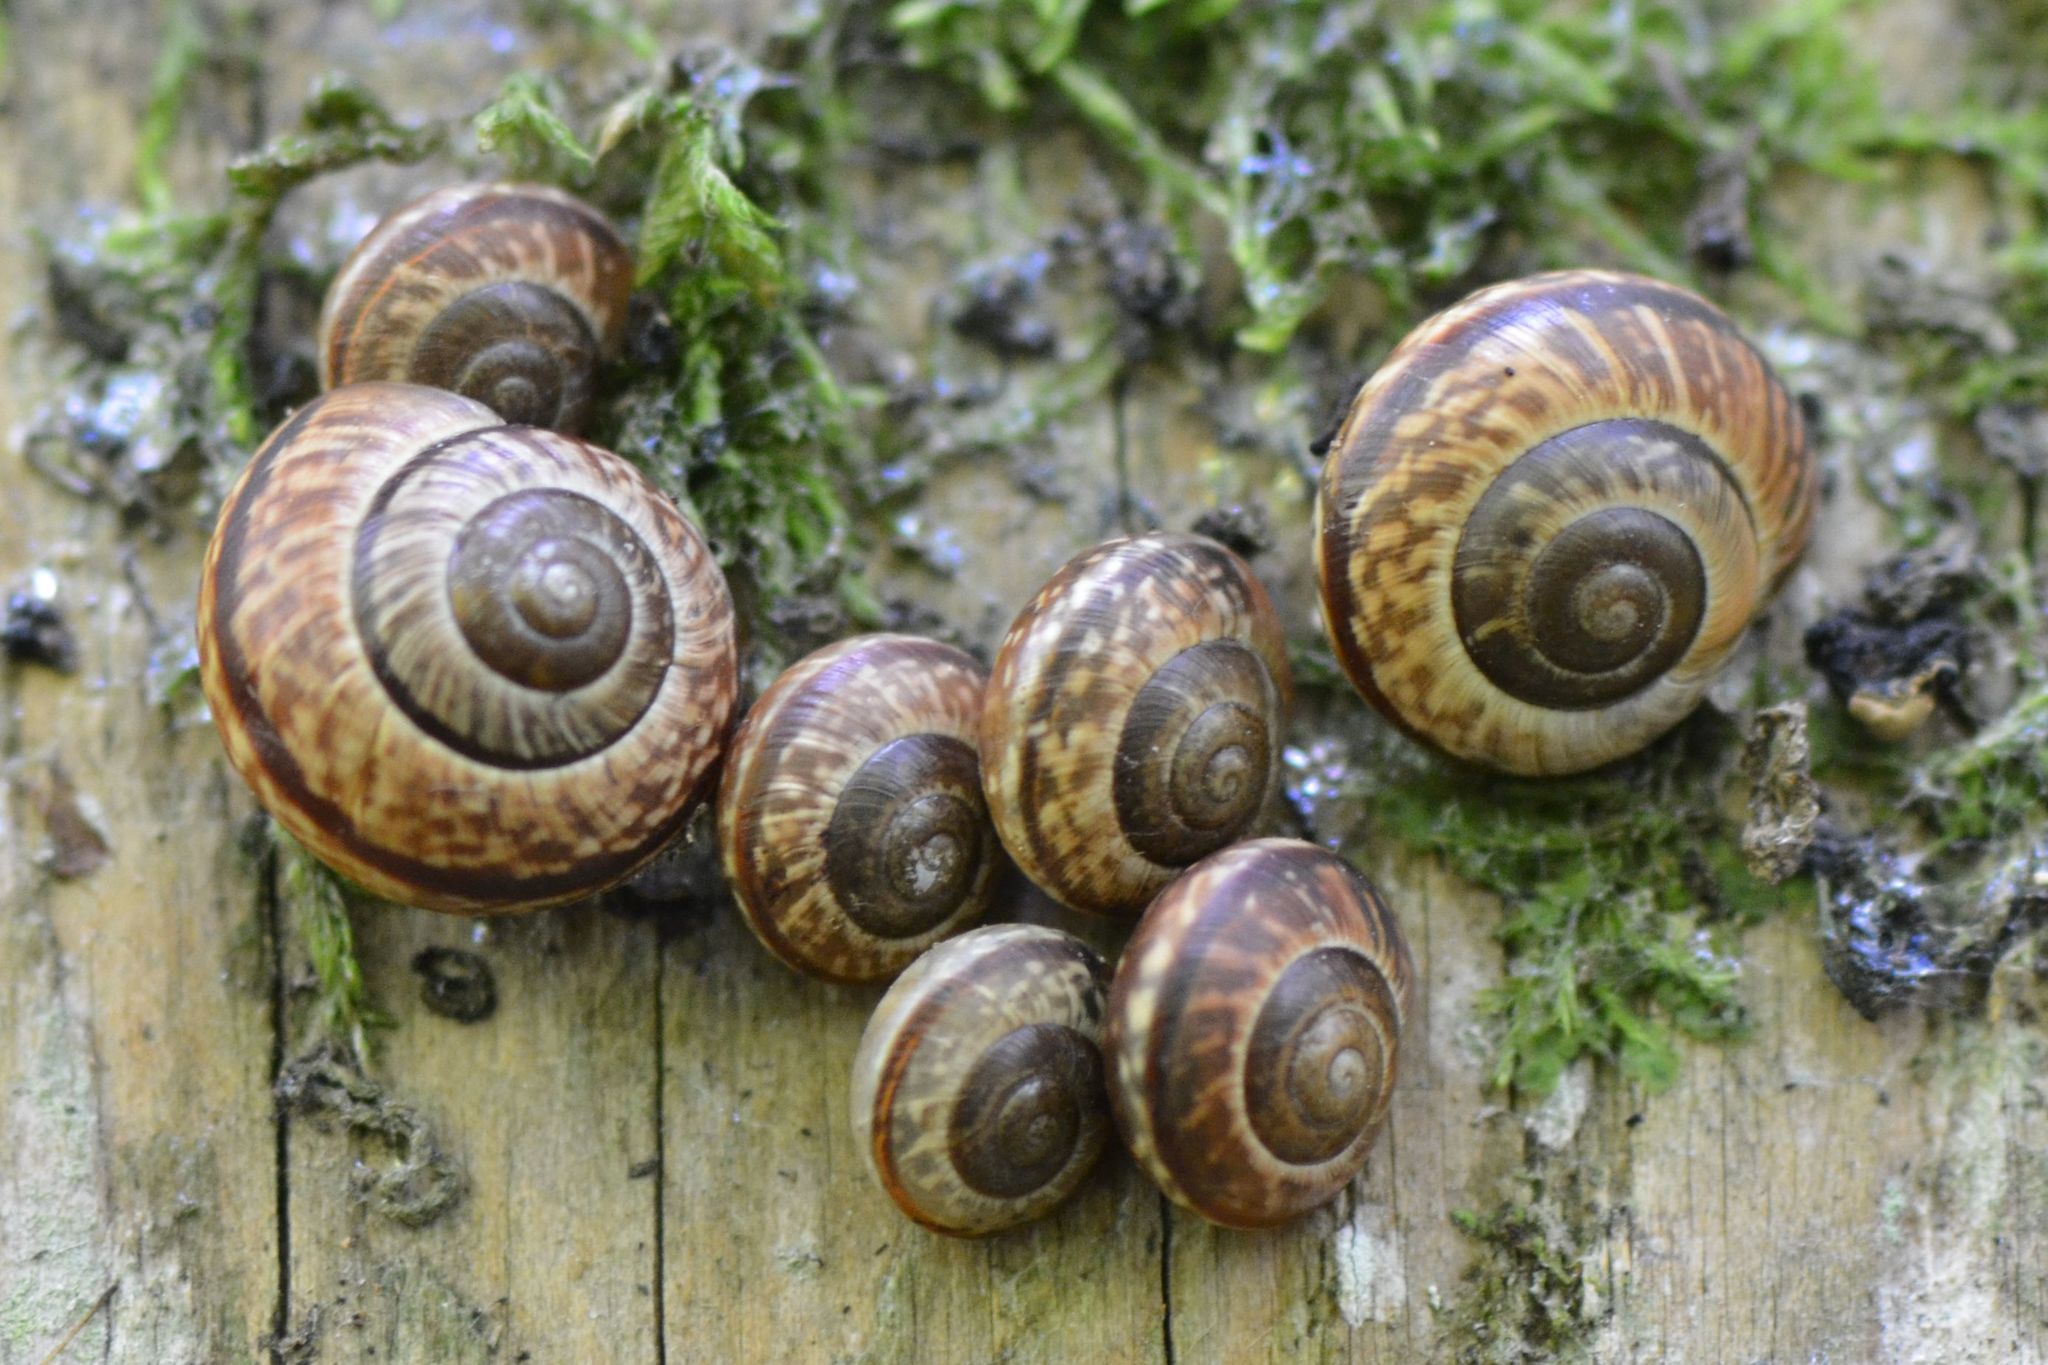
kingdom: Animalia
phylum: Mollusca
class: Gastropoda
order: Stylommatophora
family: Helicidae
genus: Arianta
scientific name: Arianta arbustorum
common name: Copse snail
